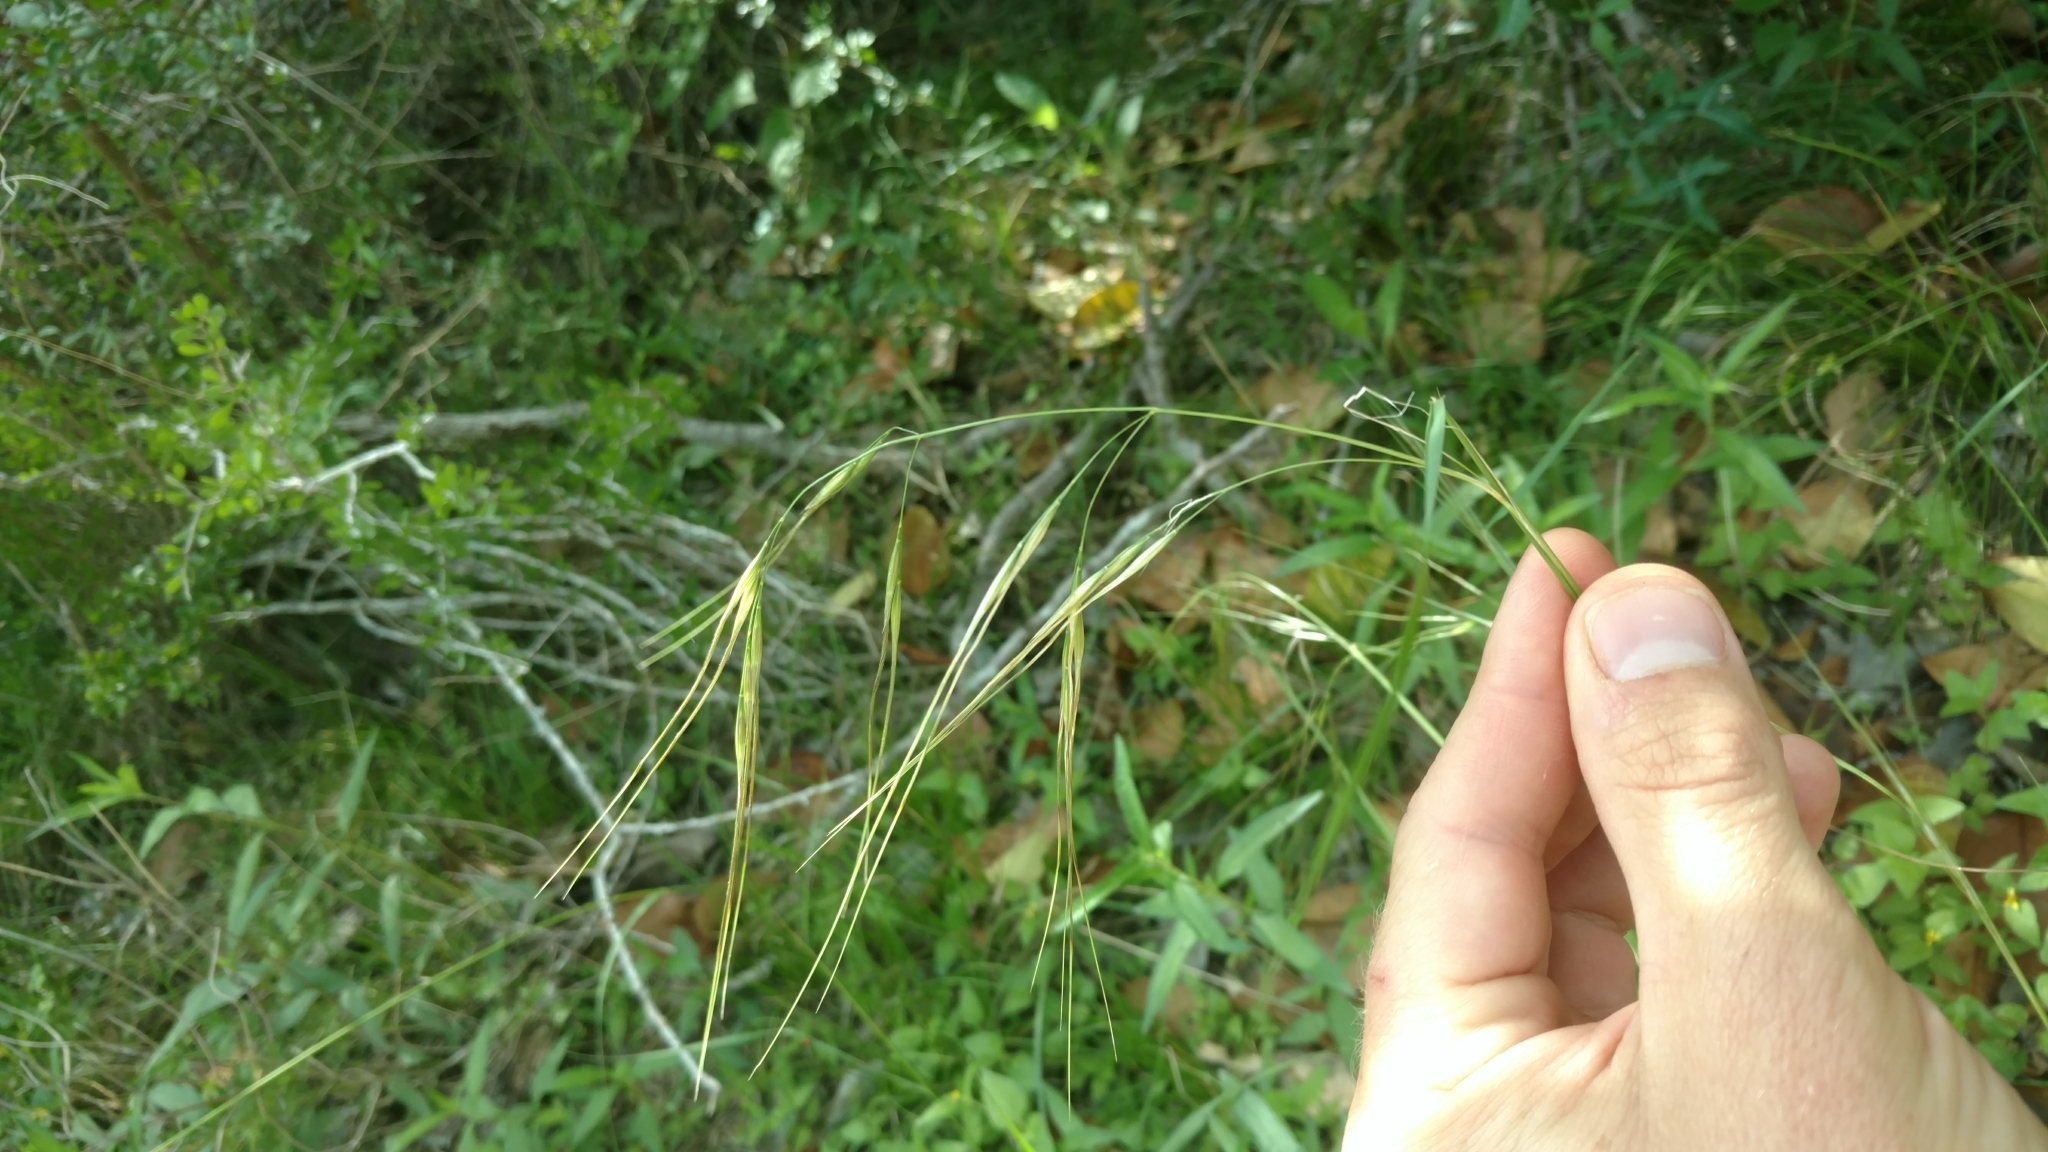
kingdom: Plantae
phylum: Tracheophyta
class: Liliopsida
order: Poales
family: Poaceae
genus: Nassella
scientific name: Nassella leucotricha
